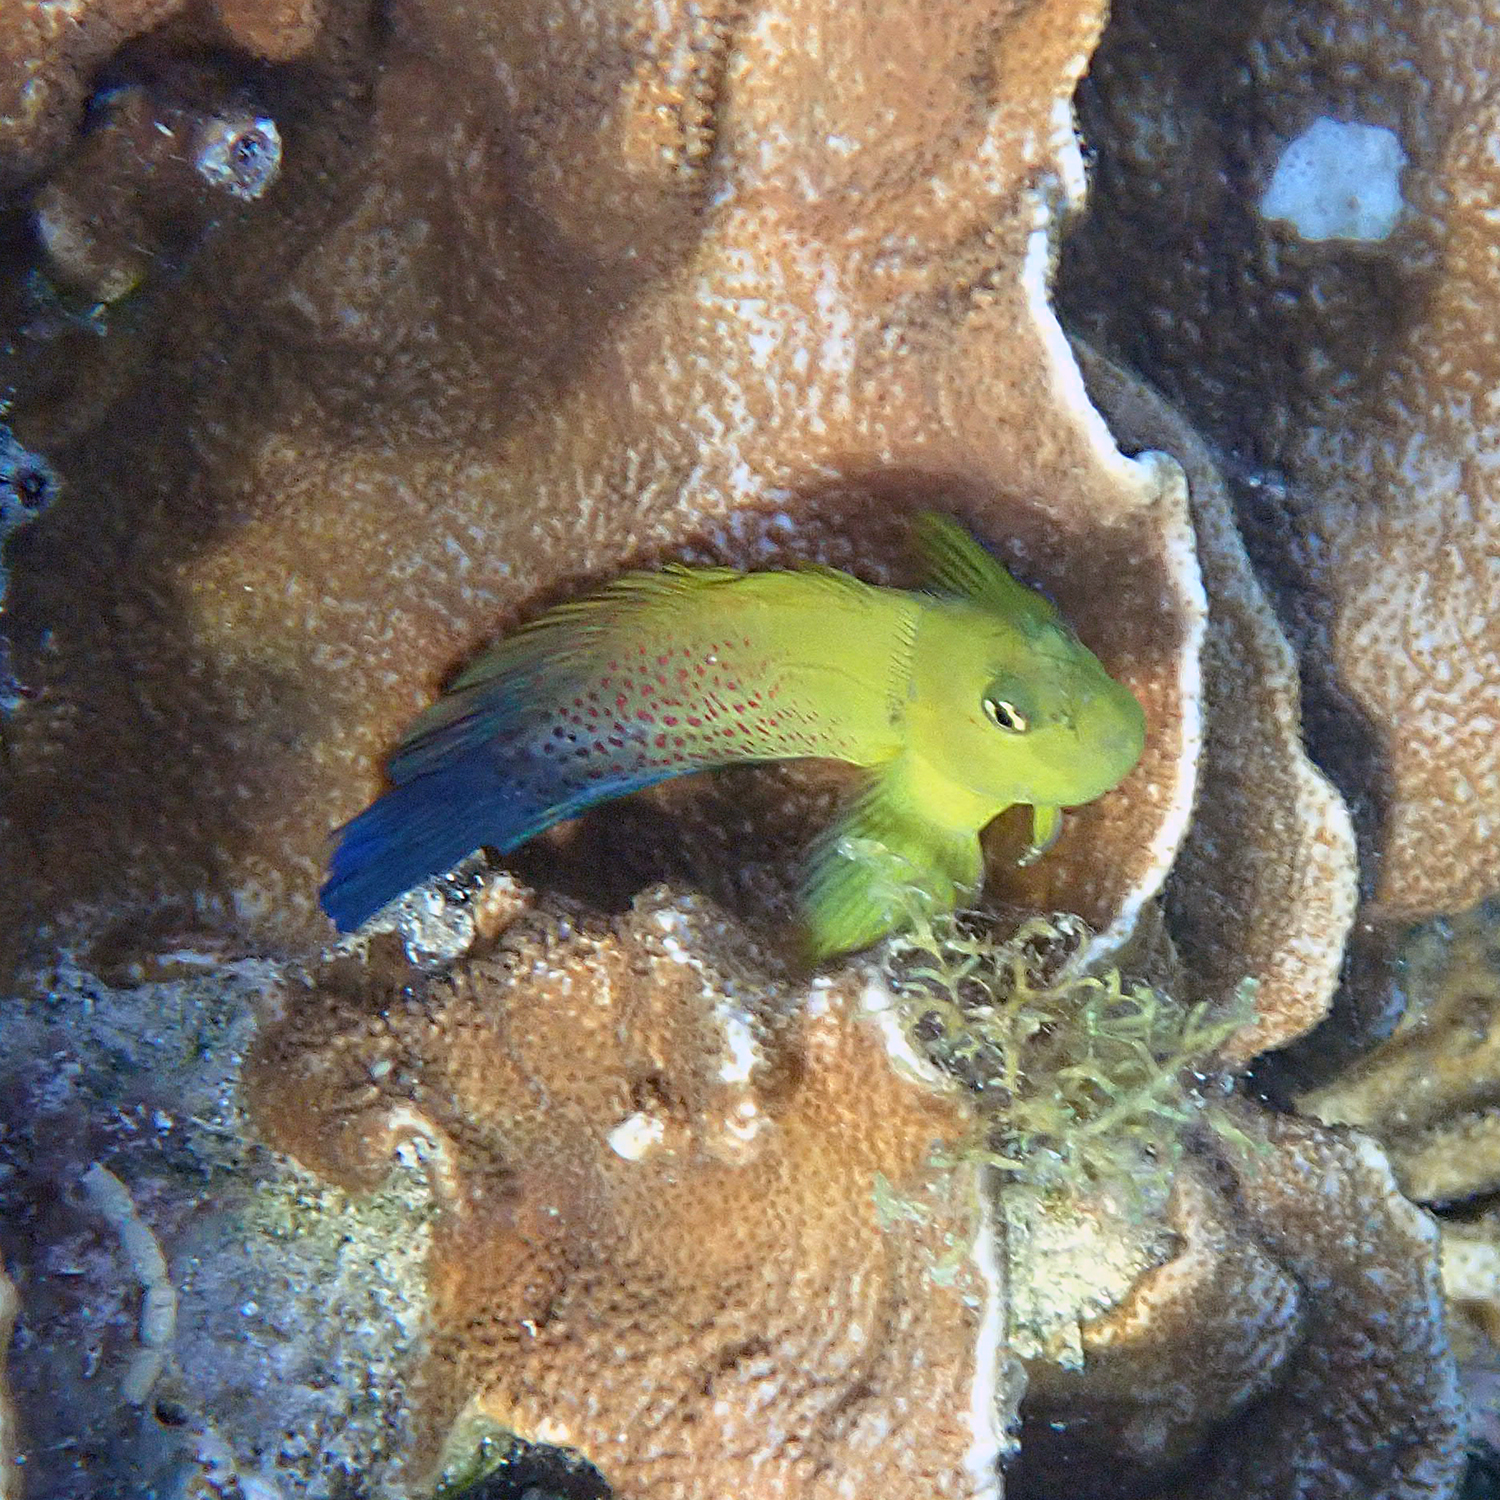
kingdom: Animalia
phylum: Chordata
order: Perciformes
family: Blenniidae
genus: Cirripectes
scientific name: Cirripectes chelomatus
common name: Lady musgrave blenny
